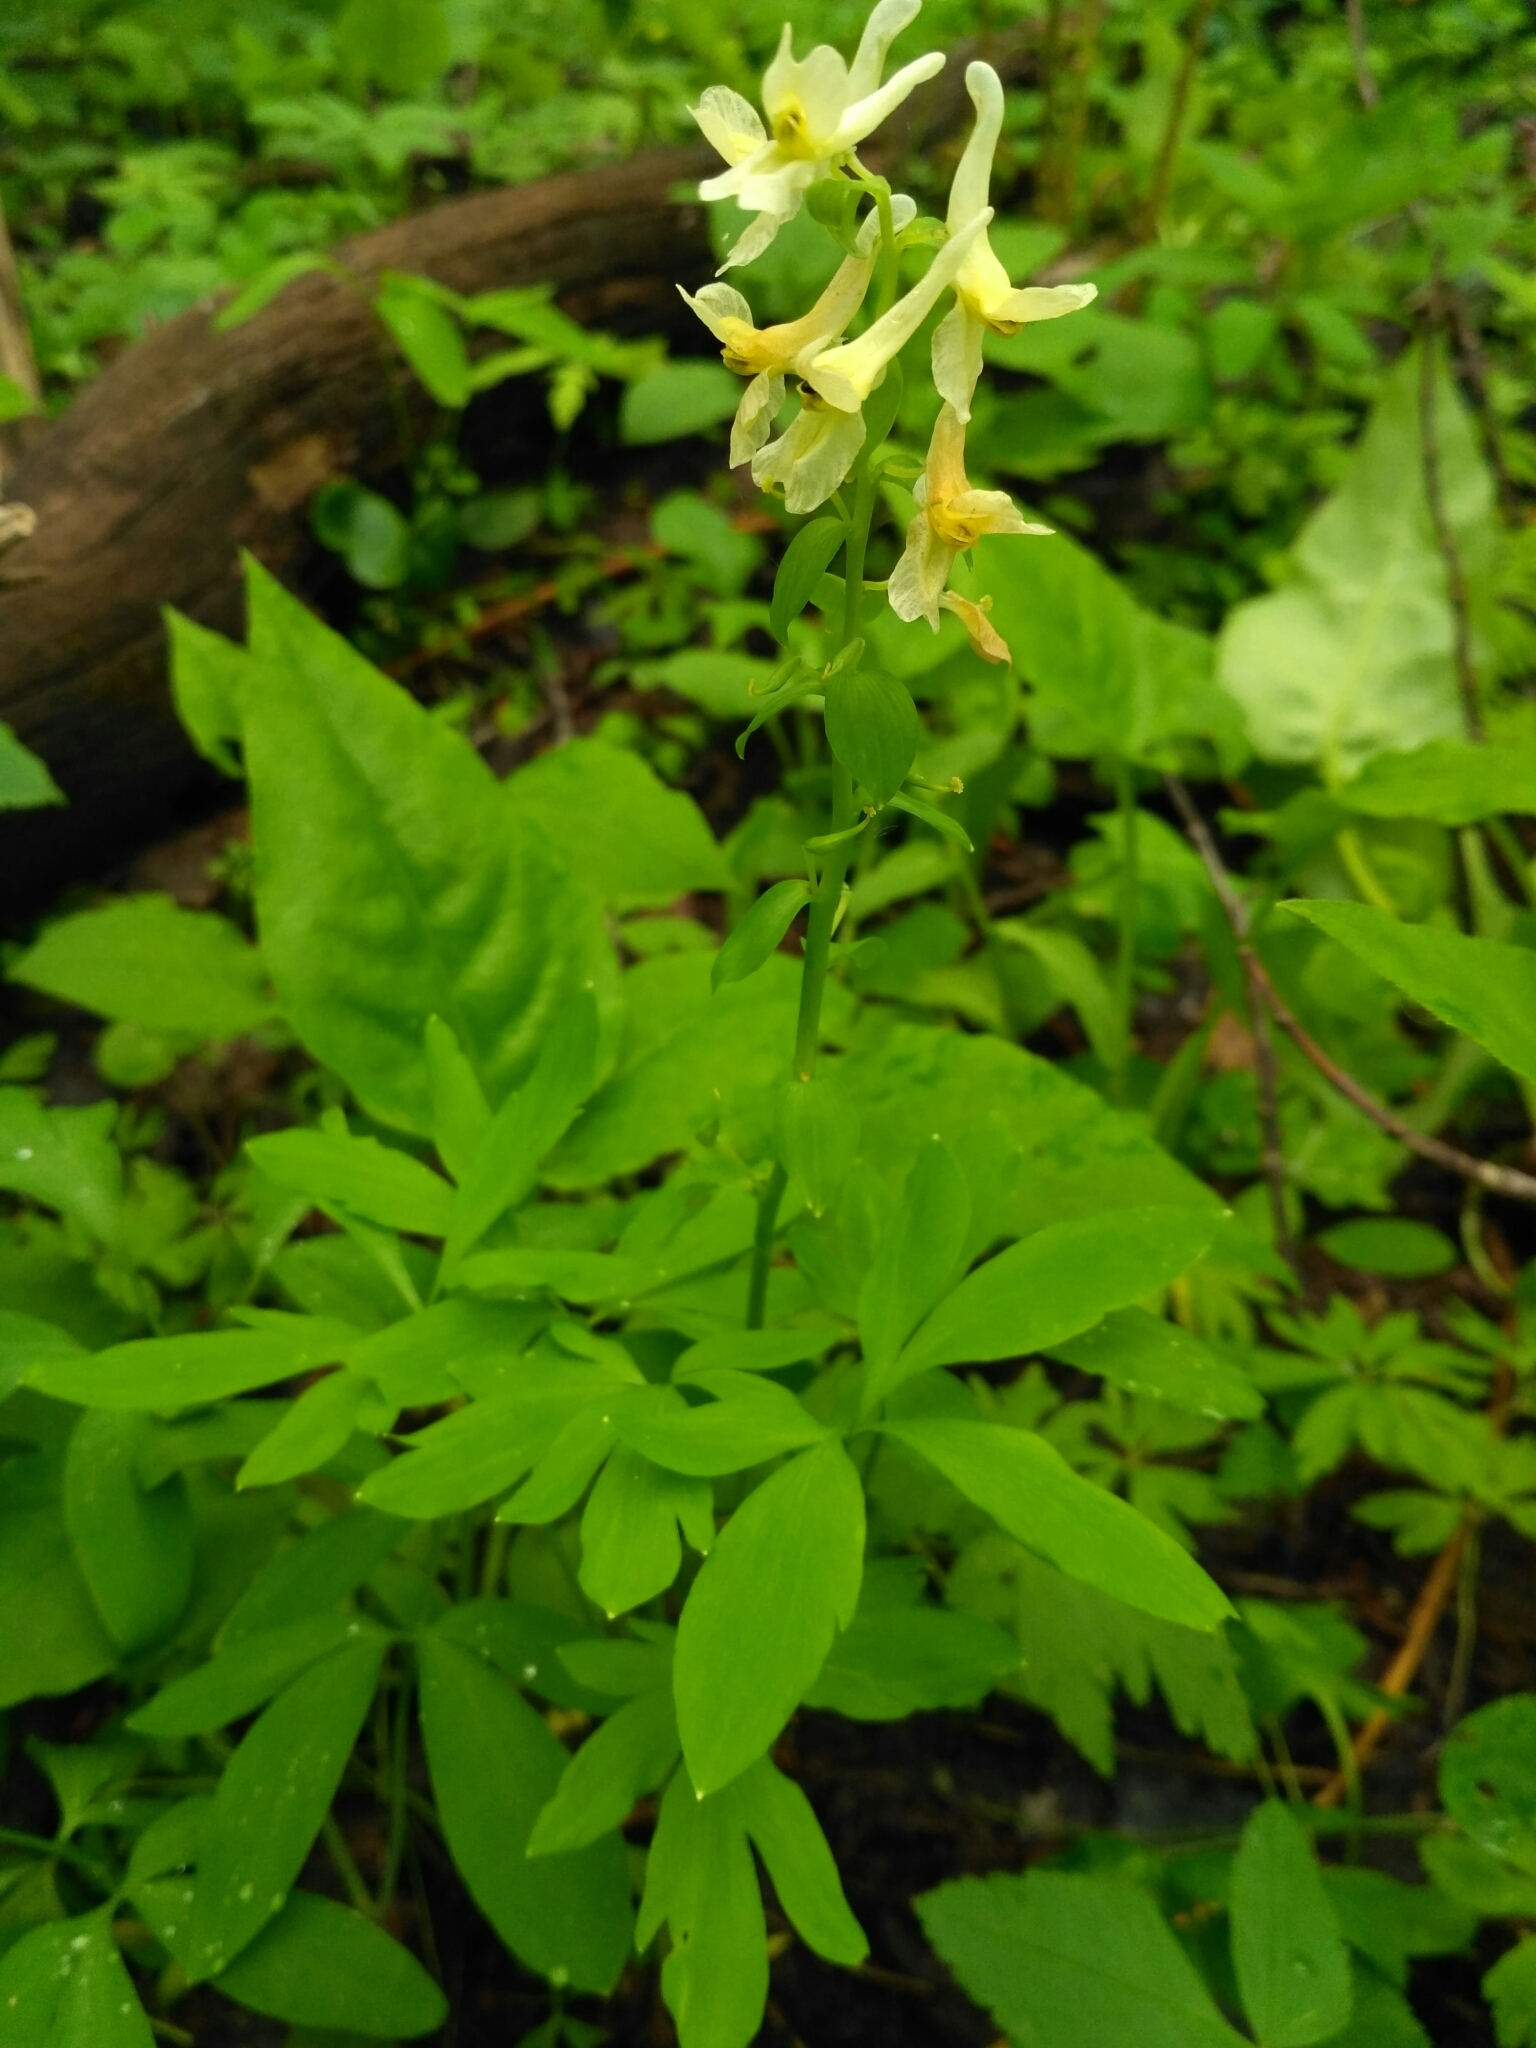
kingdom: Plantae
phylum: Tracheophyta
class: Magnoliopsida
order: Ranunculales
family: Papaveraceae
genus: Corydalis
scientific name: Corydalis cava
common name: Hollowroot
